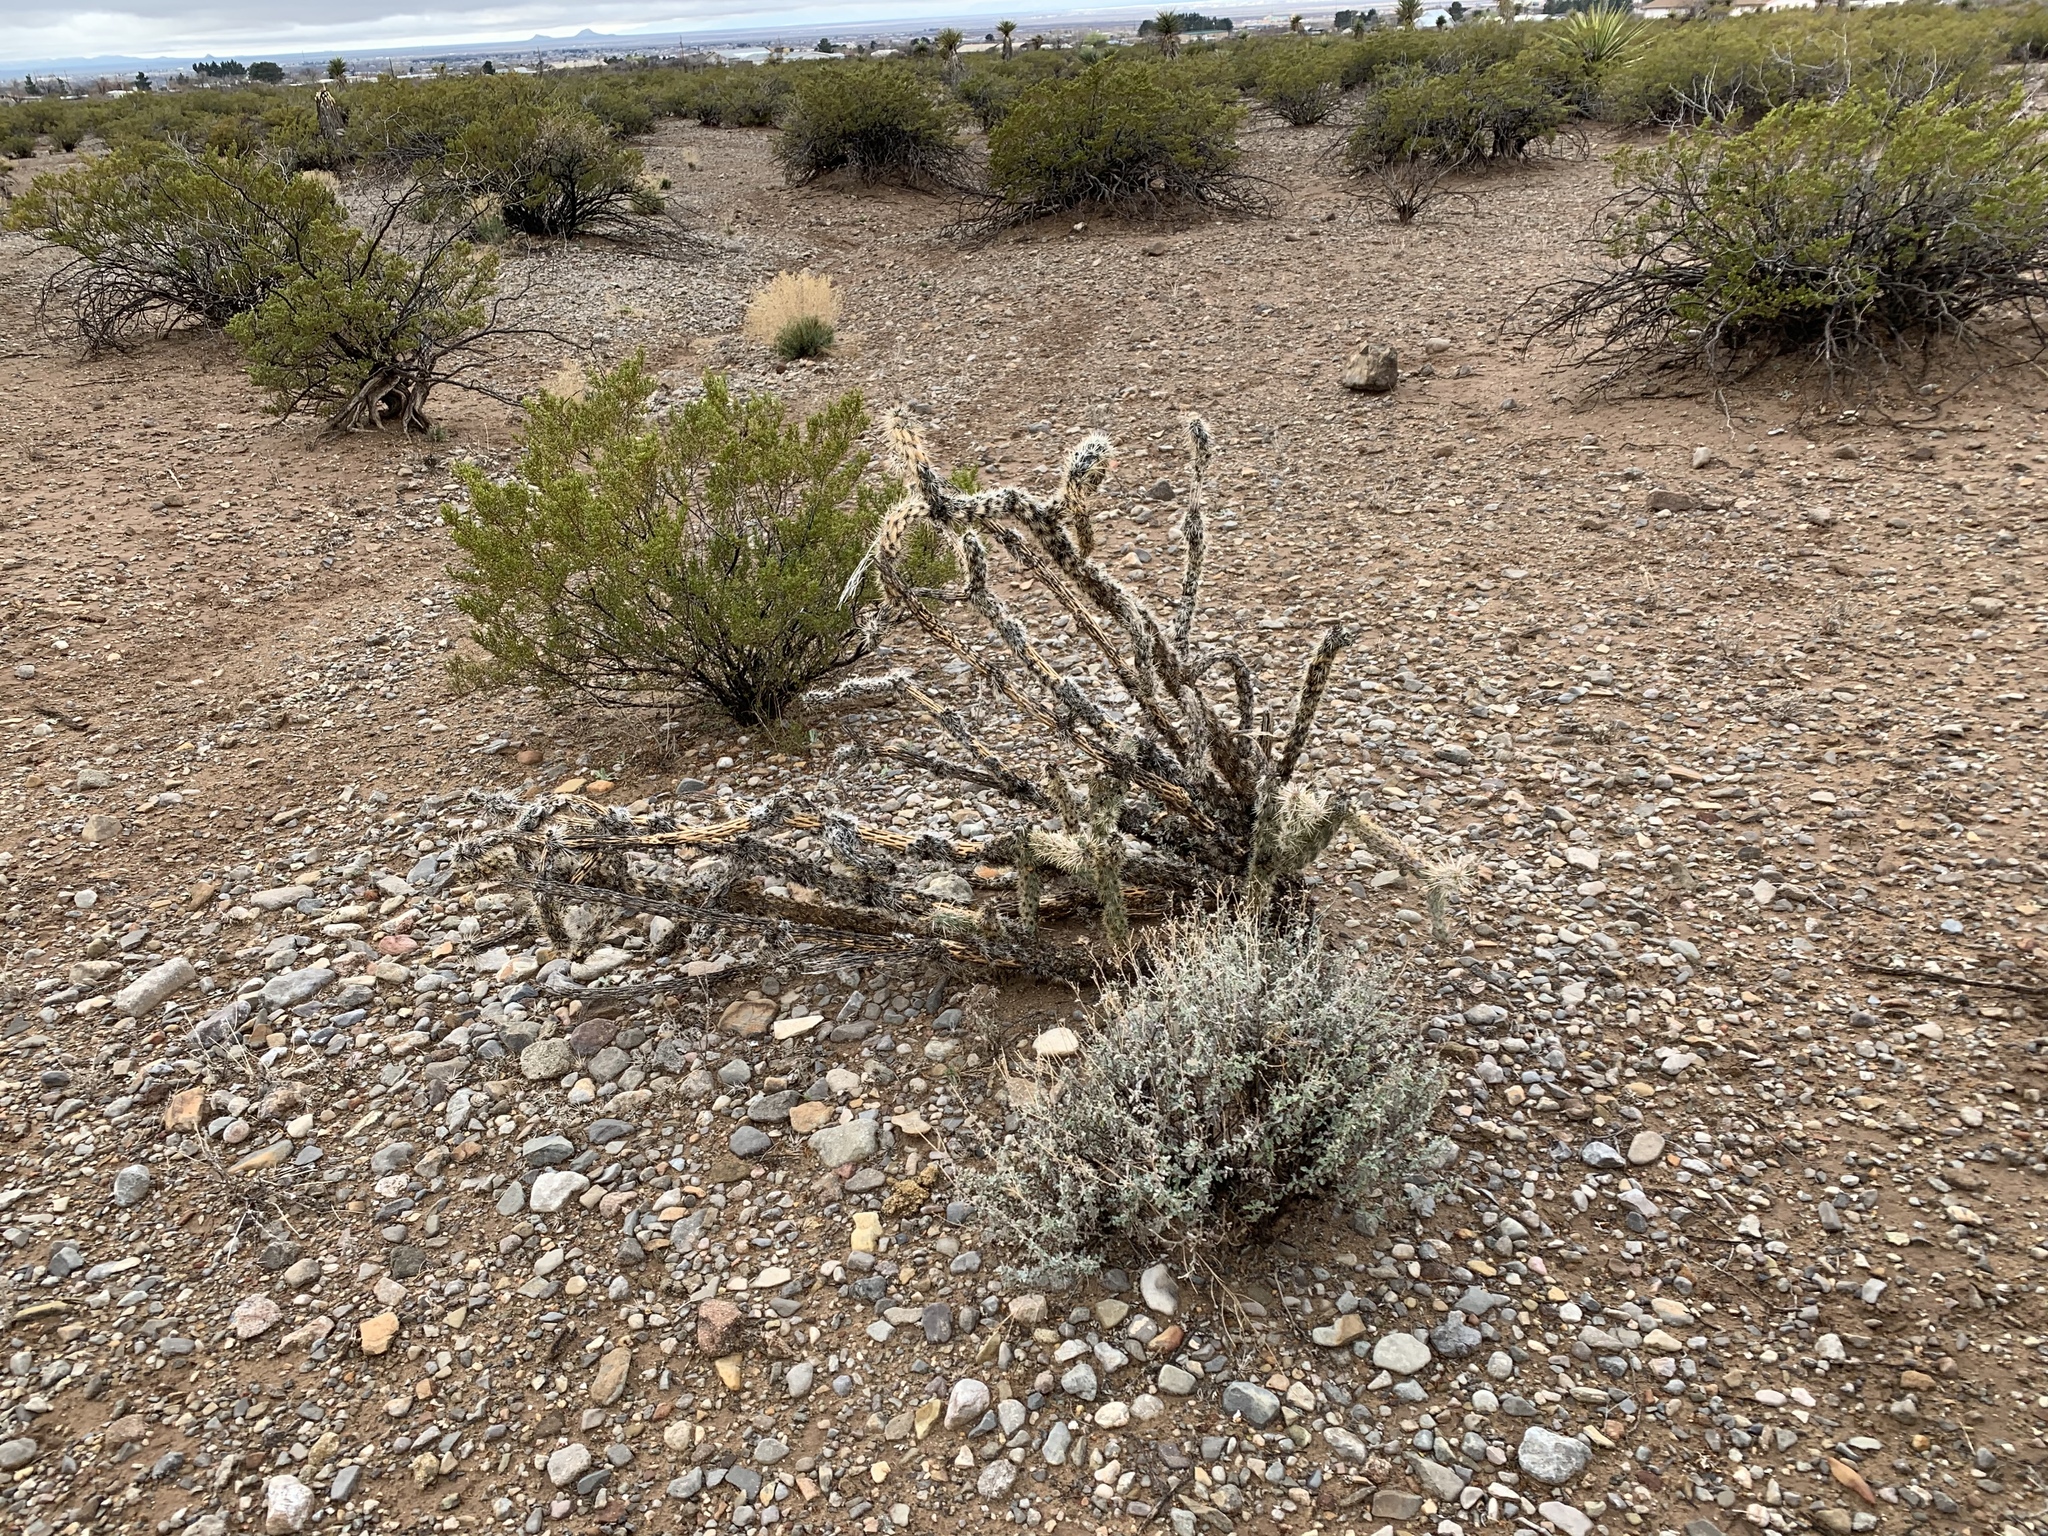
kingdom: Plantae
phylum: Tracheophyta
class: Magnoliopsida
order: Caryophyllales
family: Cactaceae
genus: Cylindropuntia
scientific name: Cylindropuntia imbricata
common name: Candelabrum cactus
